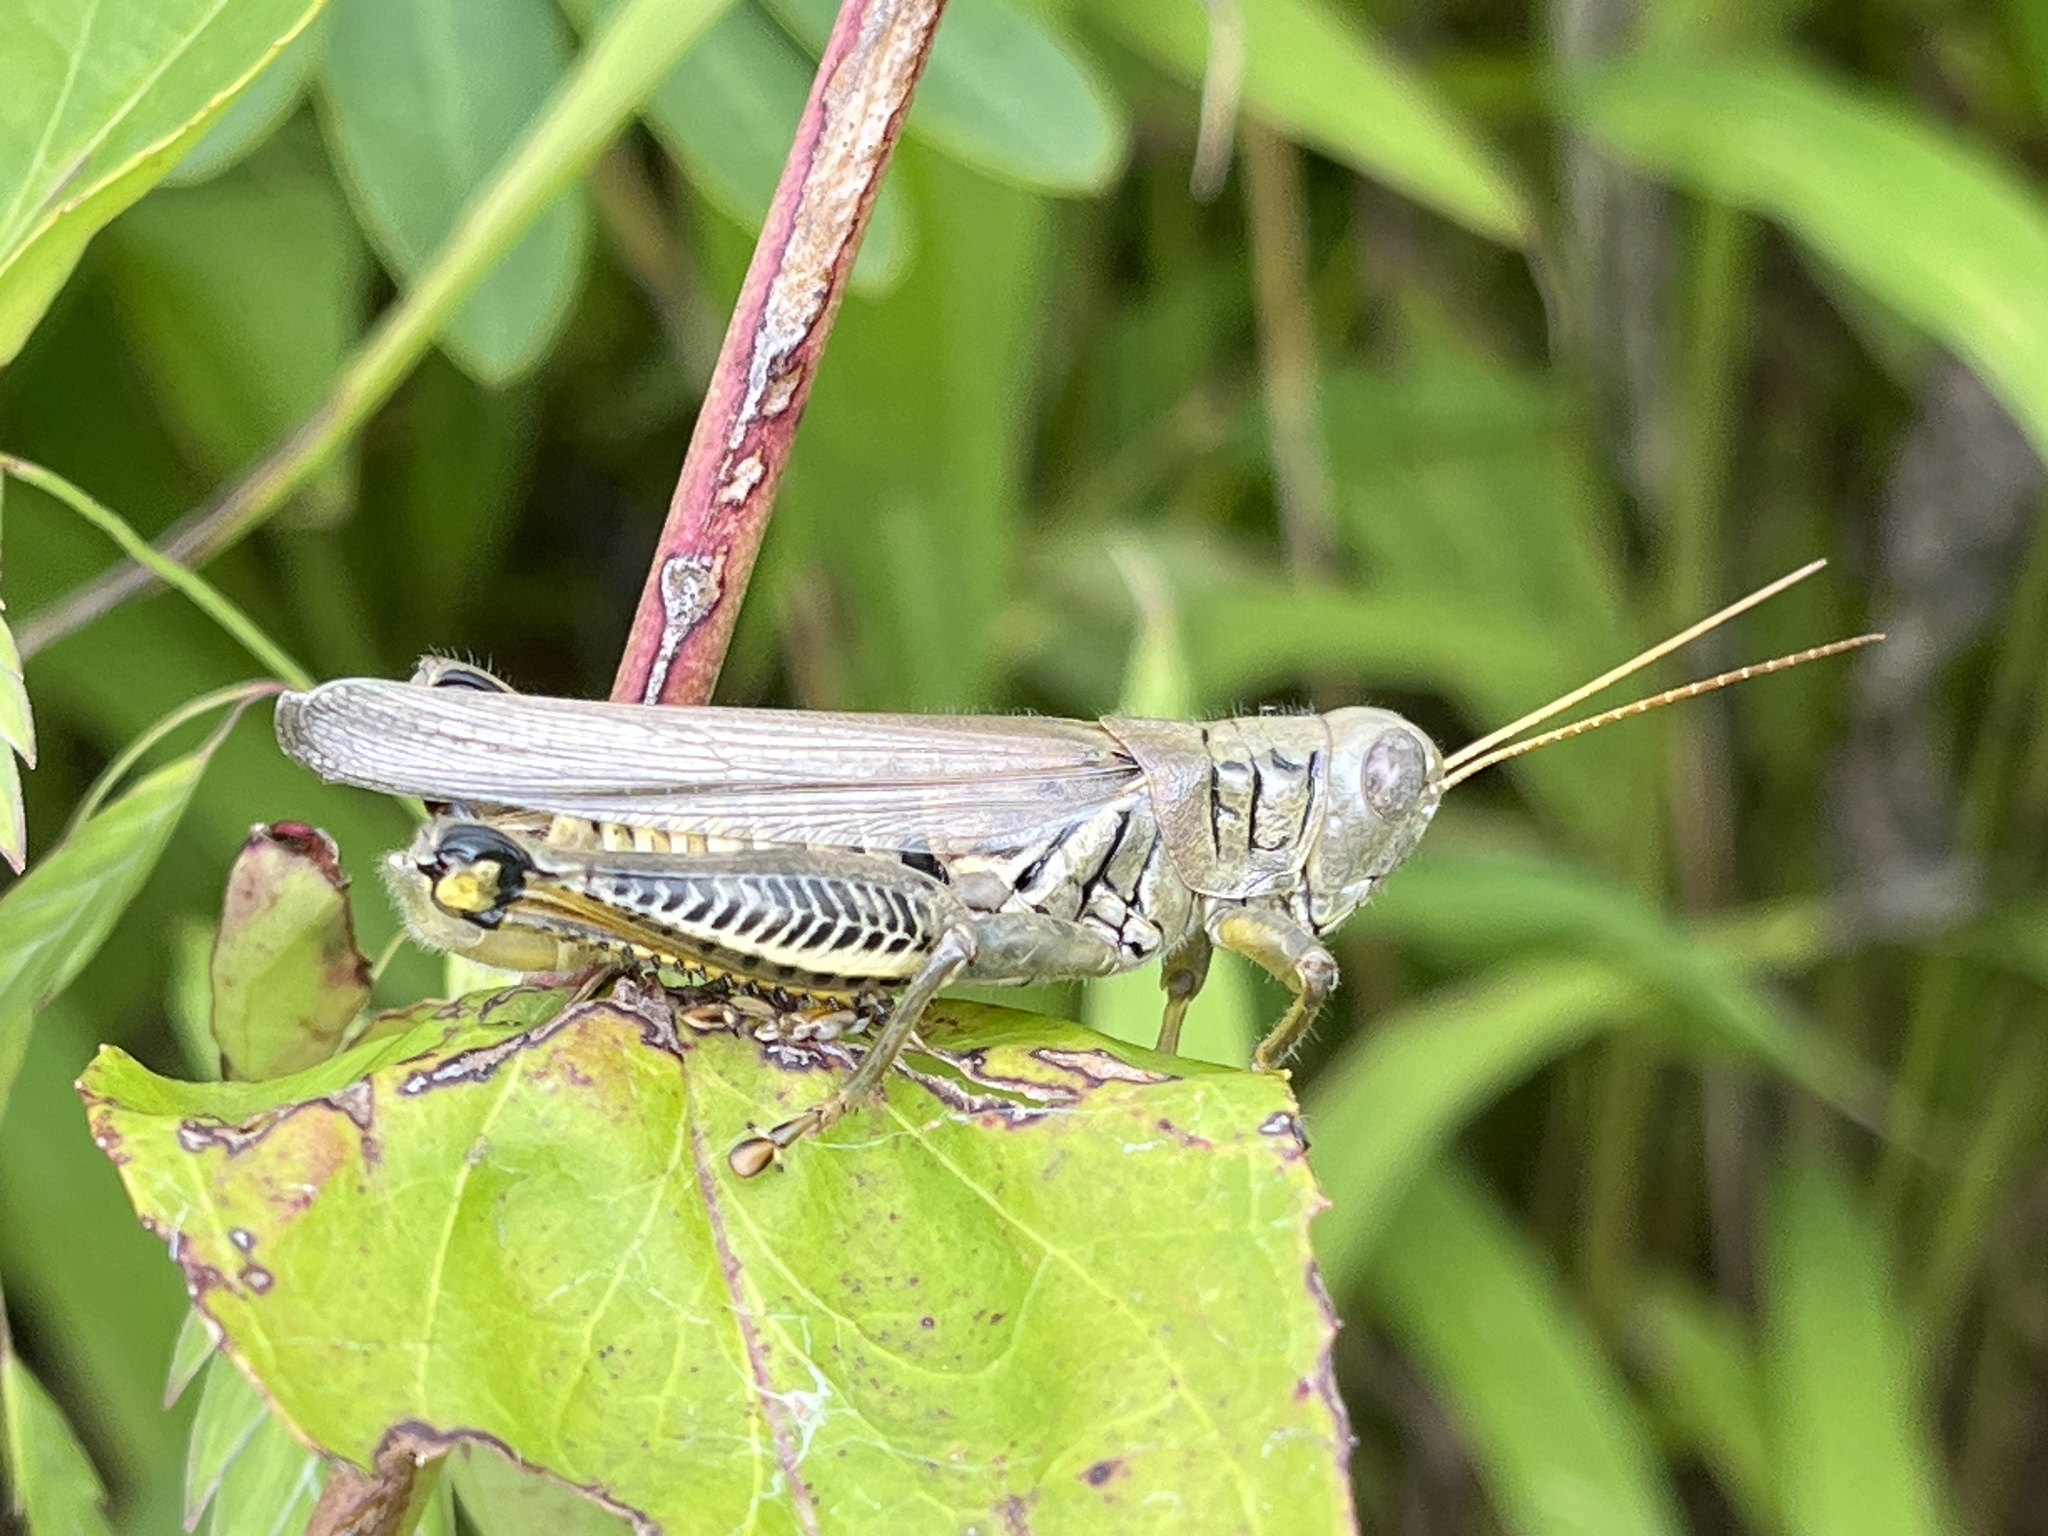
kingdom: Animalia
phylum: Arthropoda
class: Insecta
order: Orthoptera
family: Acrididae
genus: Melanoplus
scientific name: Melanoplus differentialis
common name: Differential grasshopper
